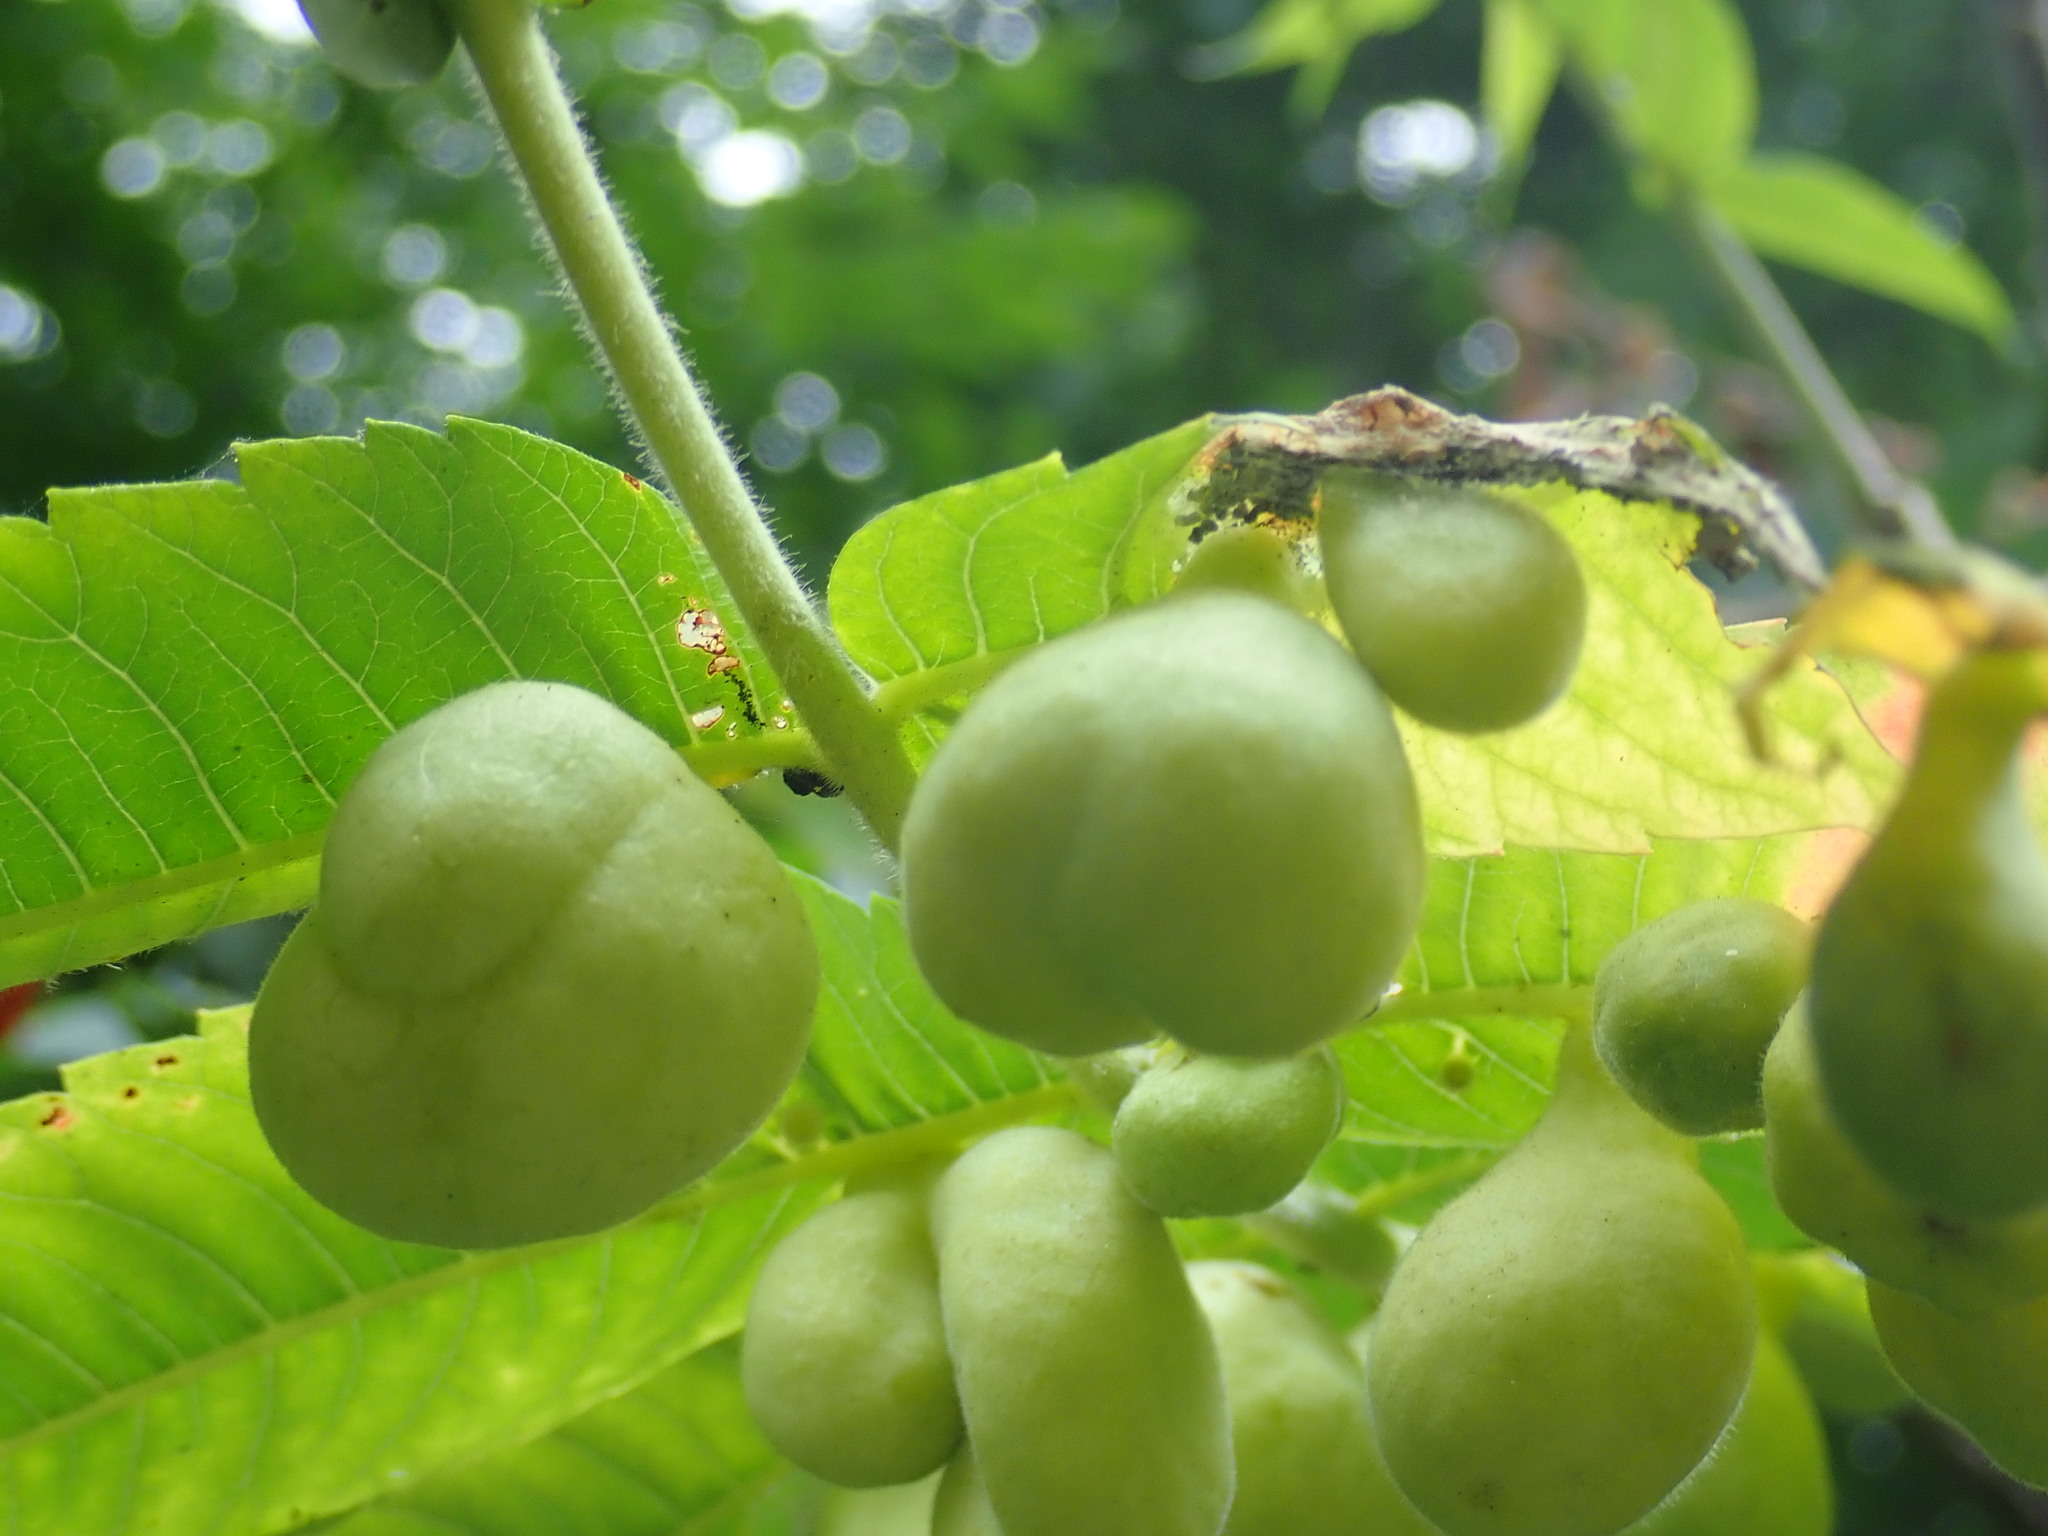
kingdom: Animalia
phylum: Arthropoda
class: Insecta
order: Hemiptera
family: Aphididae
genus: Melaphis
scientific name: Melaphis rhois
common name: Sumac gall aphid
